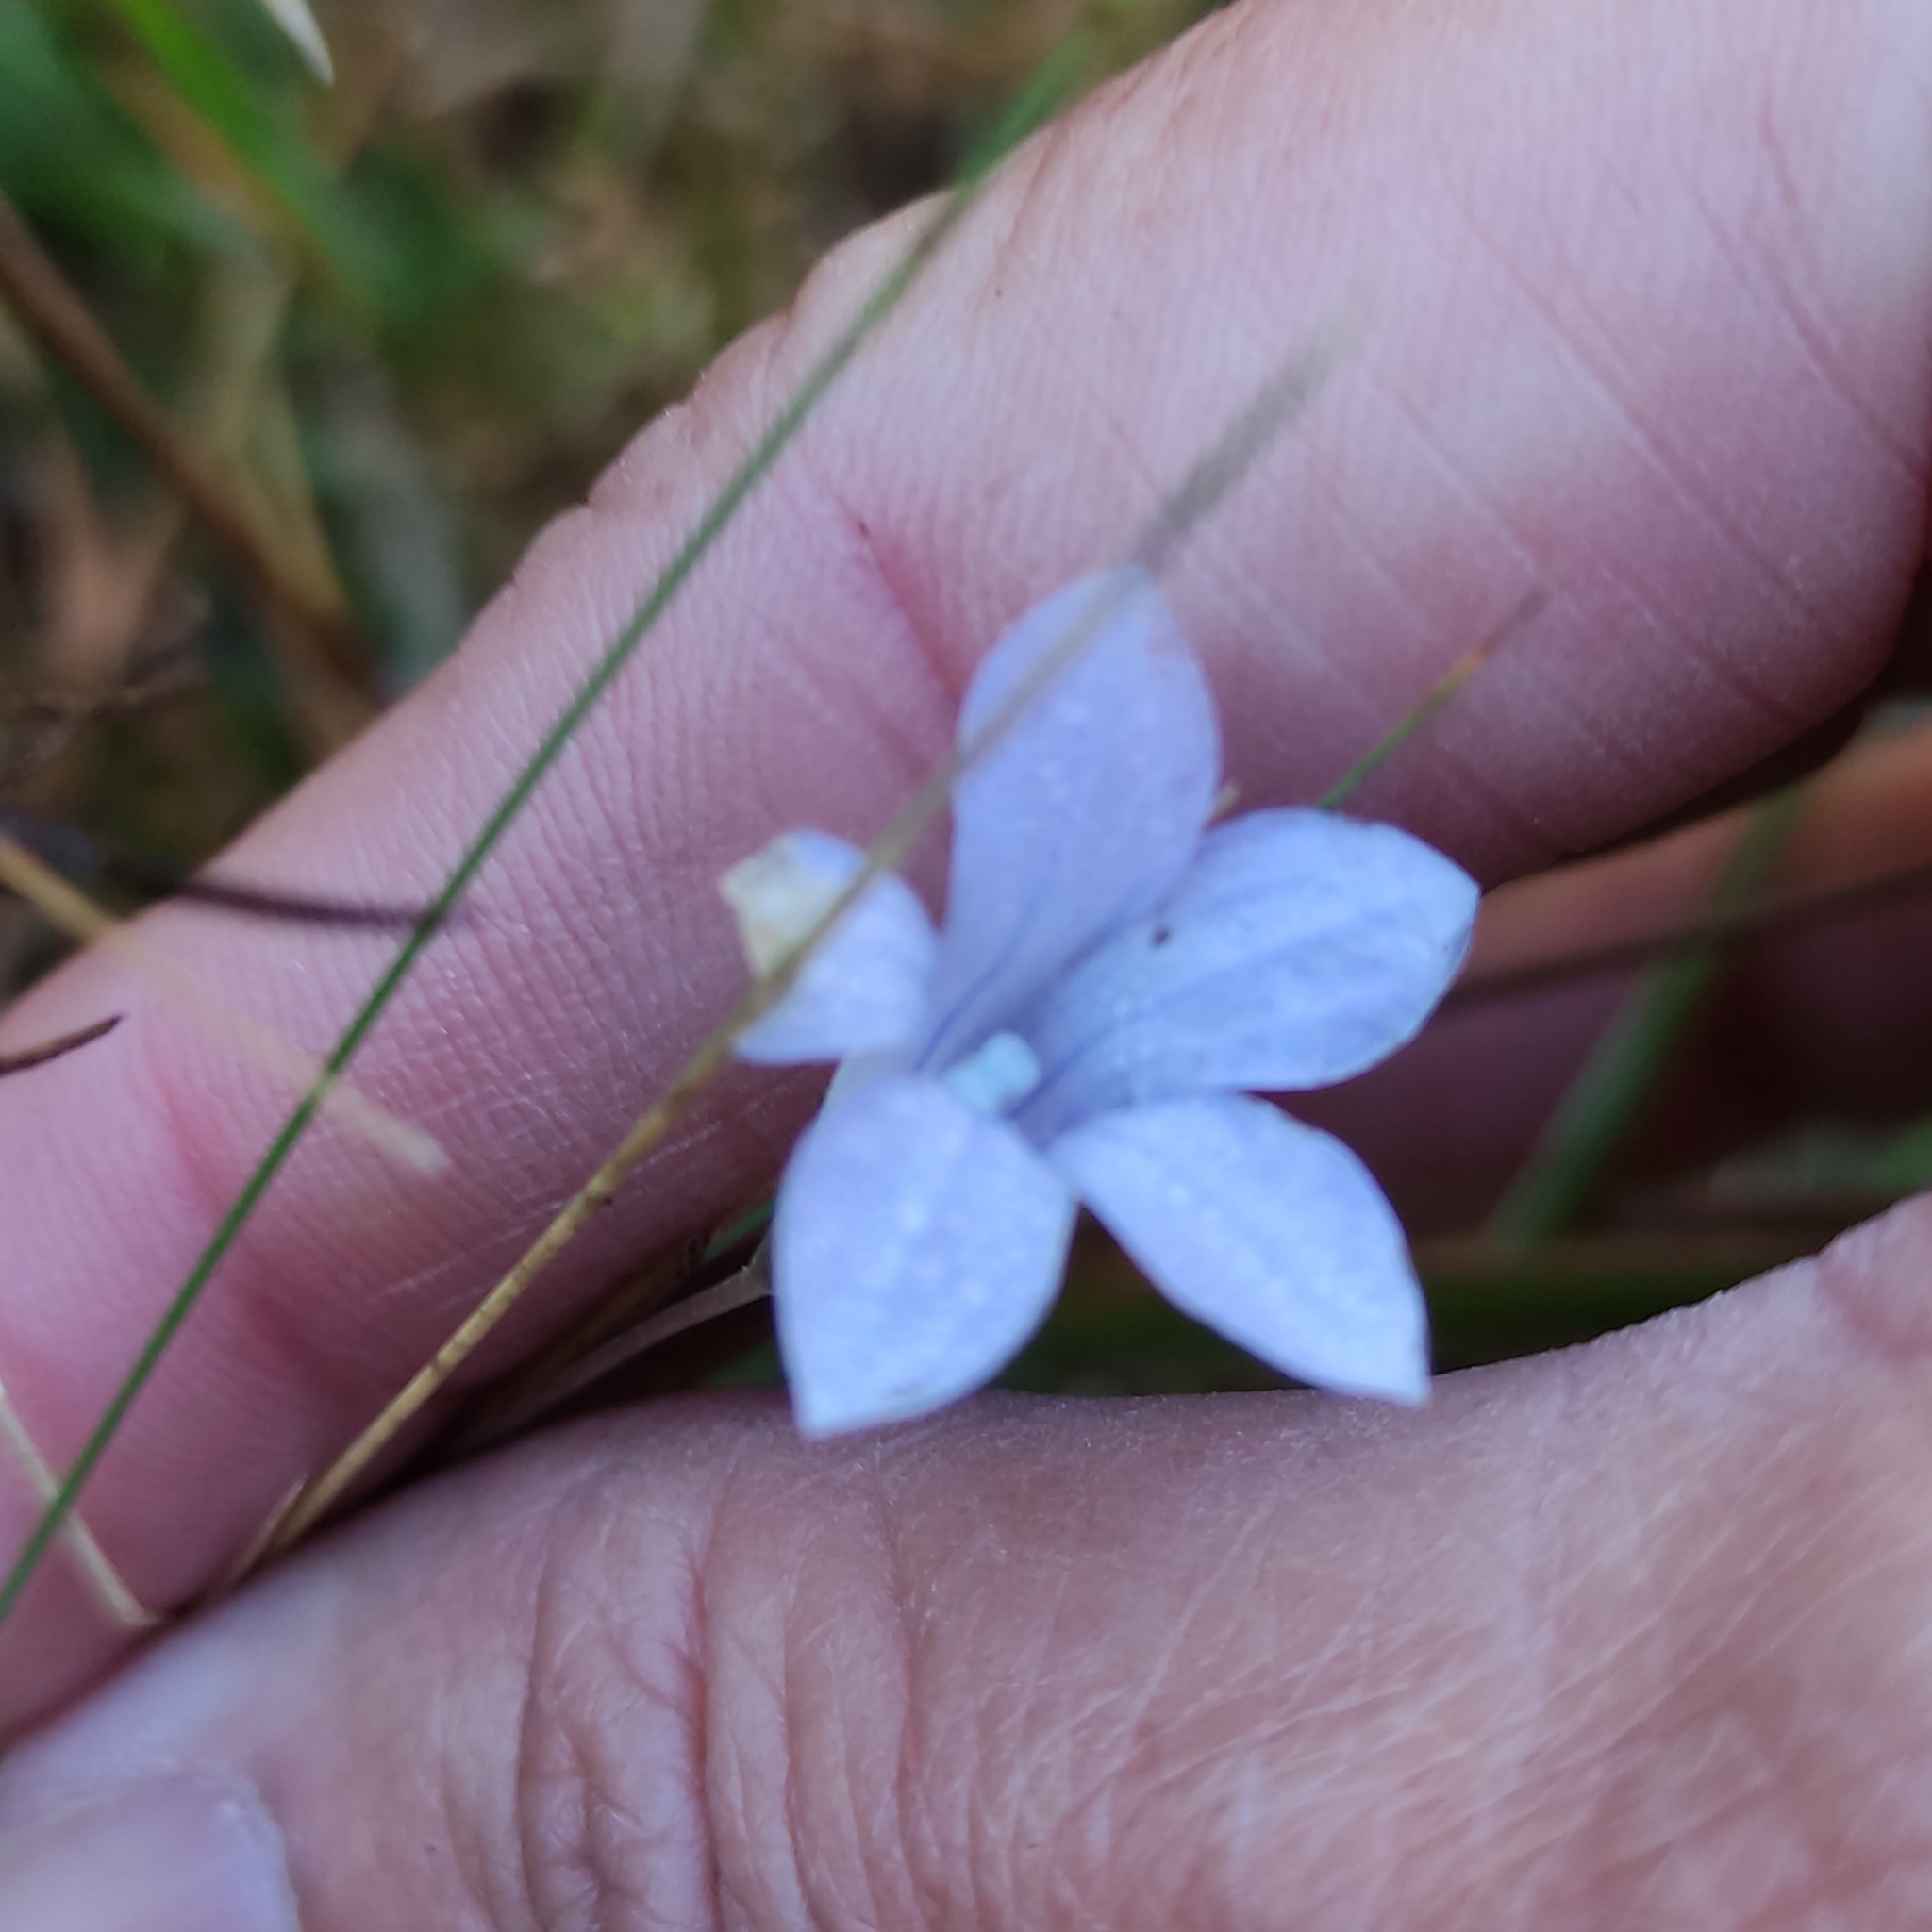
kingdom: Plantae
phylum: Tracheophyta
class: Magnoliopsida
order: Asterales
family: Campanulaceae
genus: Wahlenbergia
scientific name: Wahlenbergia albomarginata
